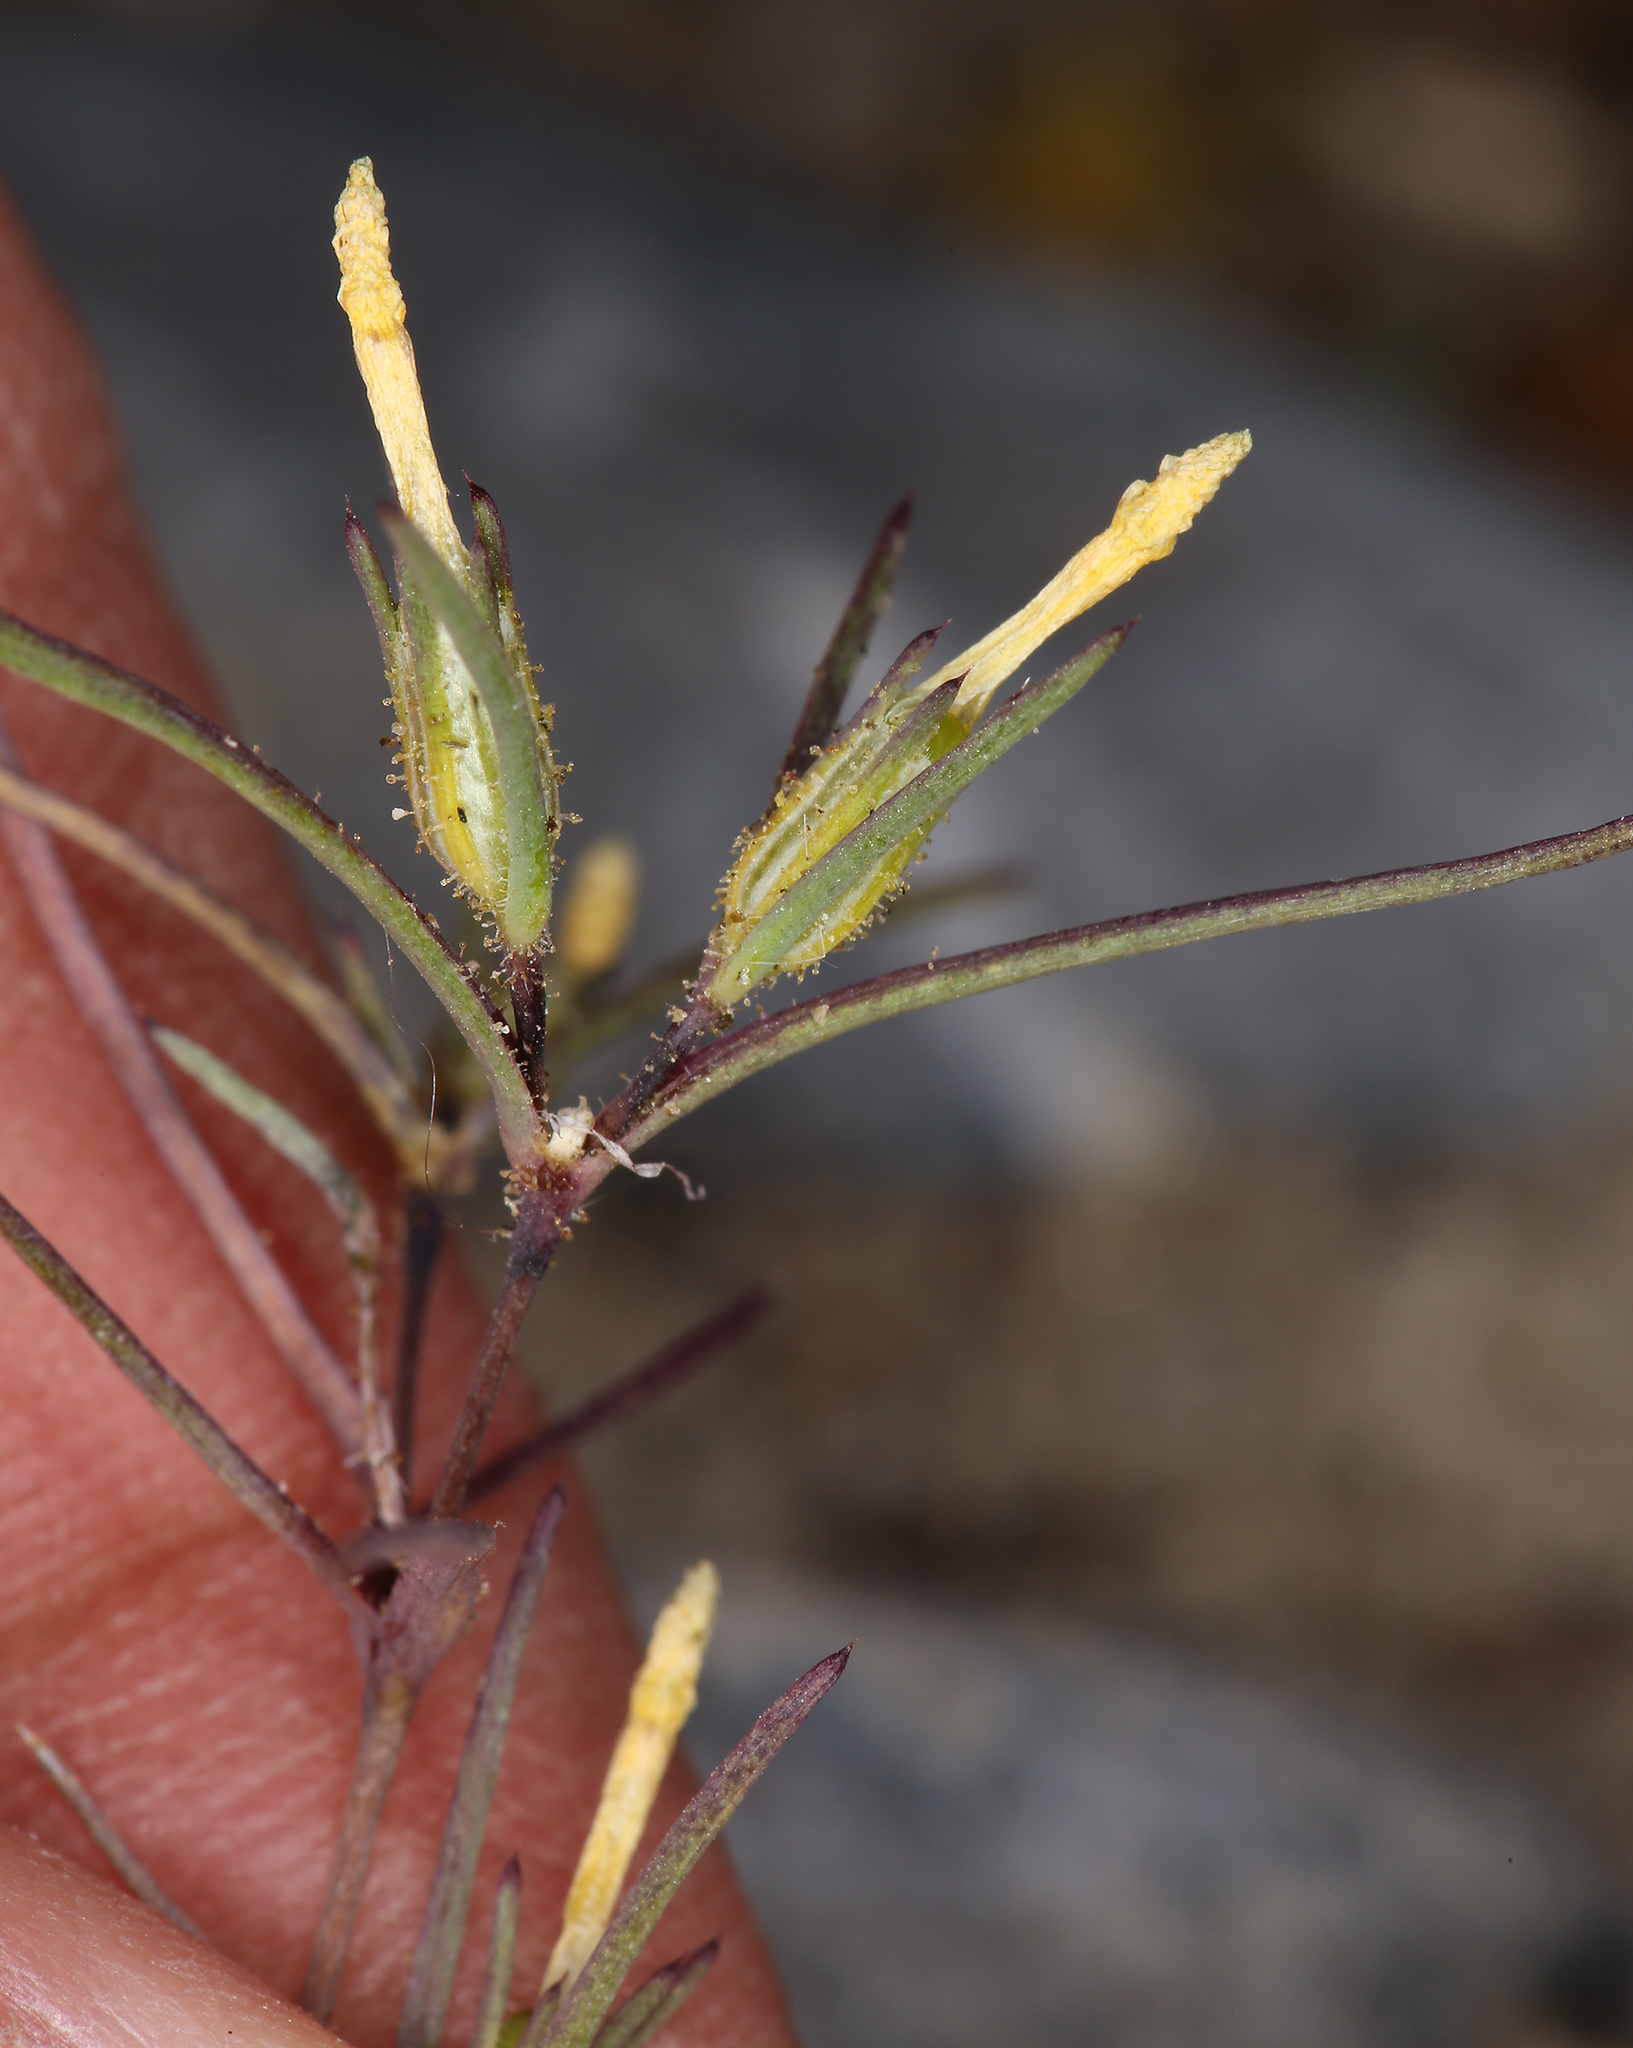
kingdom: Plantae
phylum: Tracheophyta
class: Magnoliopsida
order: Ericales
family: Polemoniaceae
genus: Linanthus
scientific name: Linanthus jonesii
